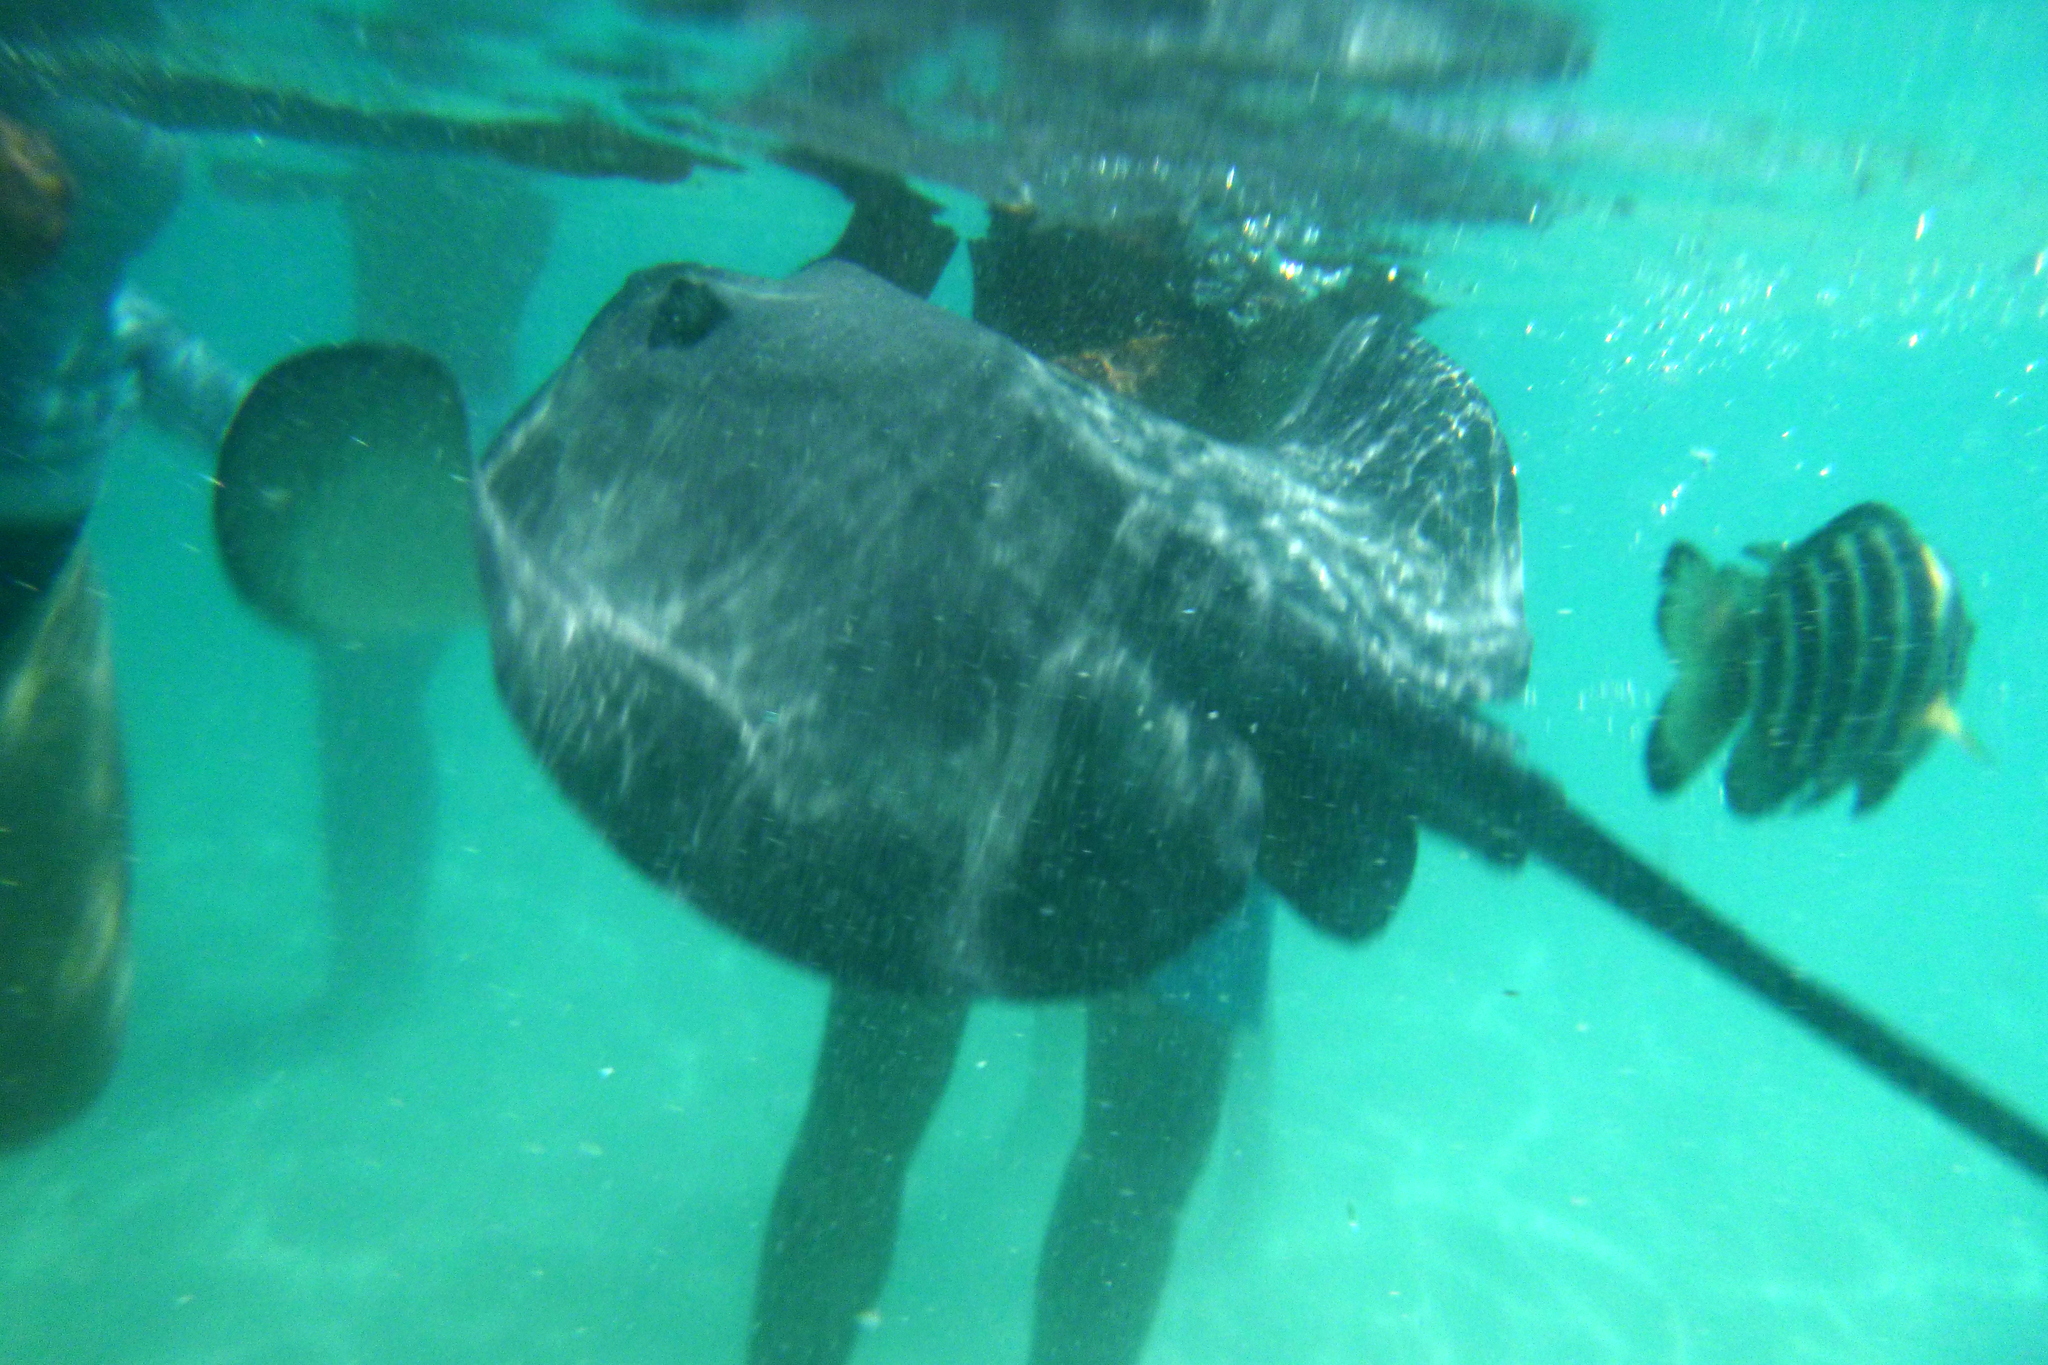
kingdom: Animalia
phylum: Chordata
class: Elasmobranchii
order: Myliobatiformes
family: Dasyatidae
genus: Pateobatis
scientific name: Pateobatis fai
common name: Pink whipray
